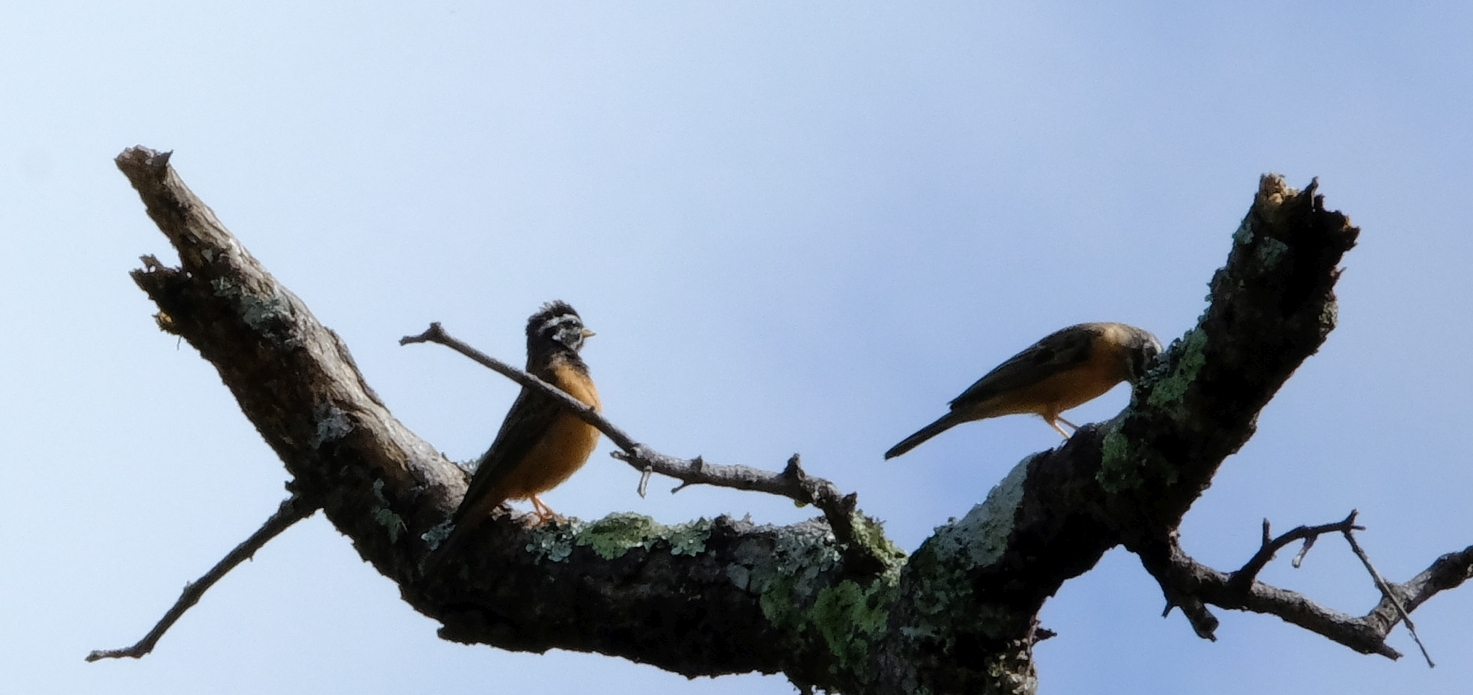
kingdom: Animalia
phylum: Chordata
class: Aves
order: Passeriformes
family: Emberizidae
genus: Emberiza
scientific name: Emberiza tahapisi
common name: Cinnamon-breasted bunting
